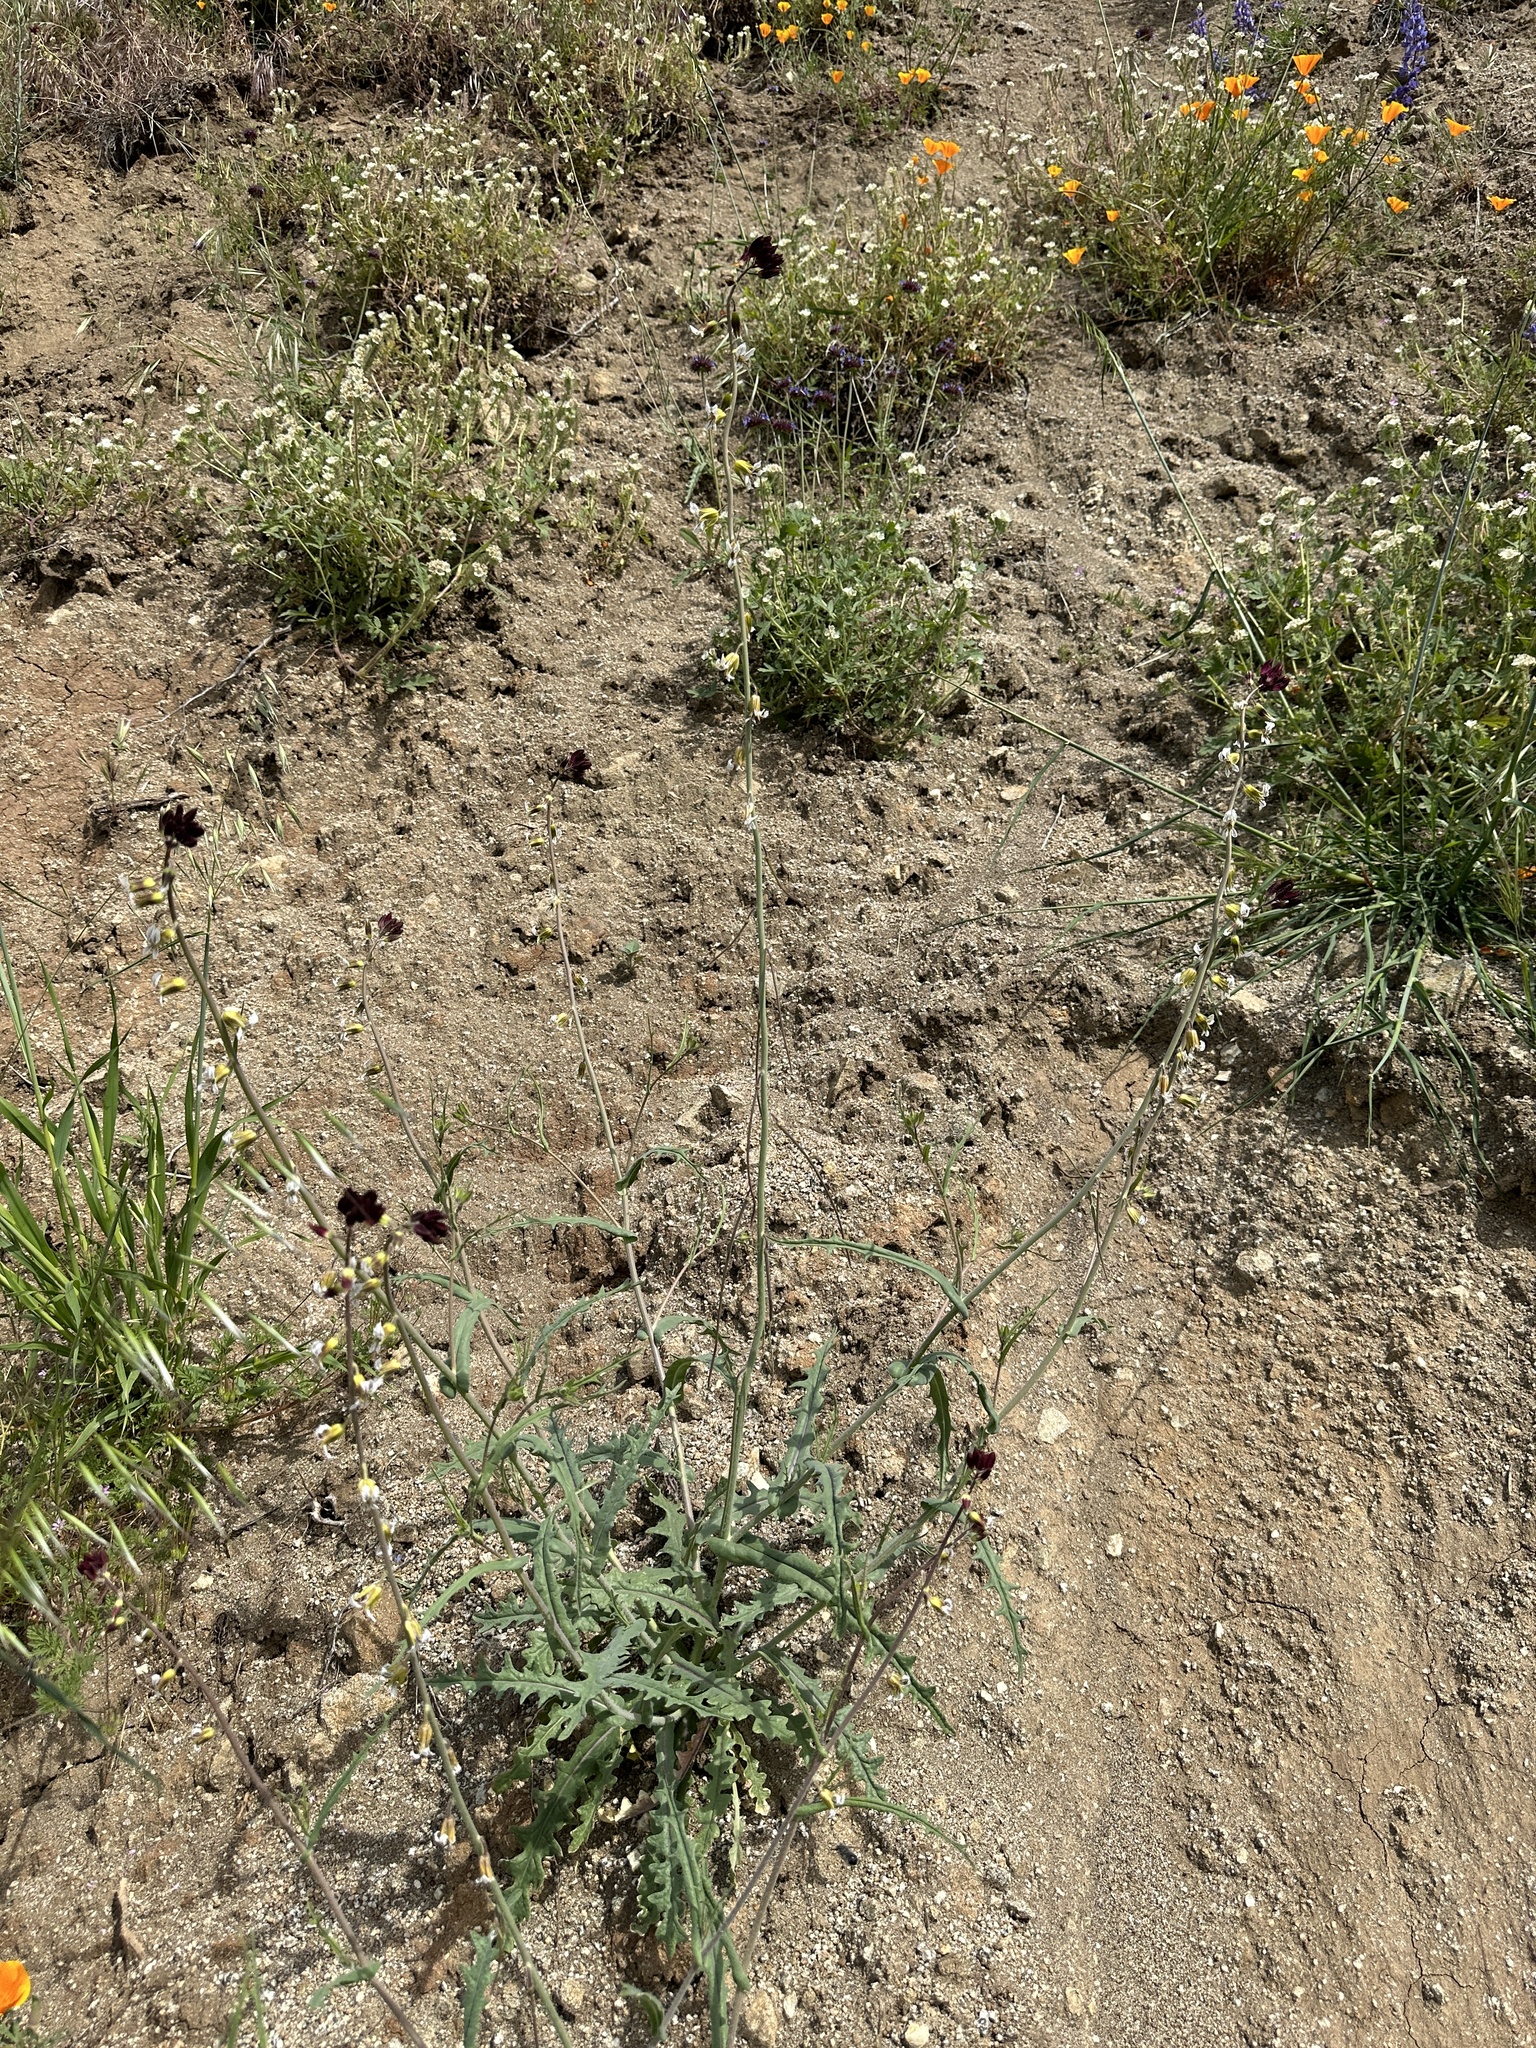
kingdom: Plantae
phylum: Tracheophyta
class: Magnoliopsida
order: Brassicales
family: Brassicaceae
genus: Streptanthus
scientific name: Streptanthus coulteri
